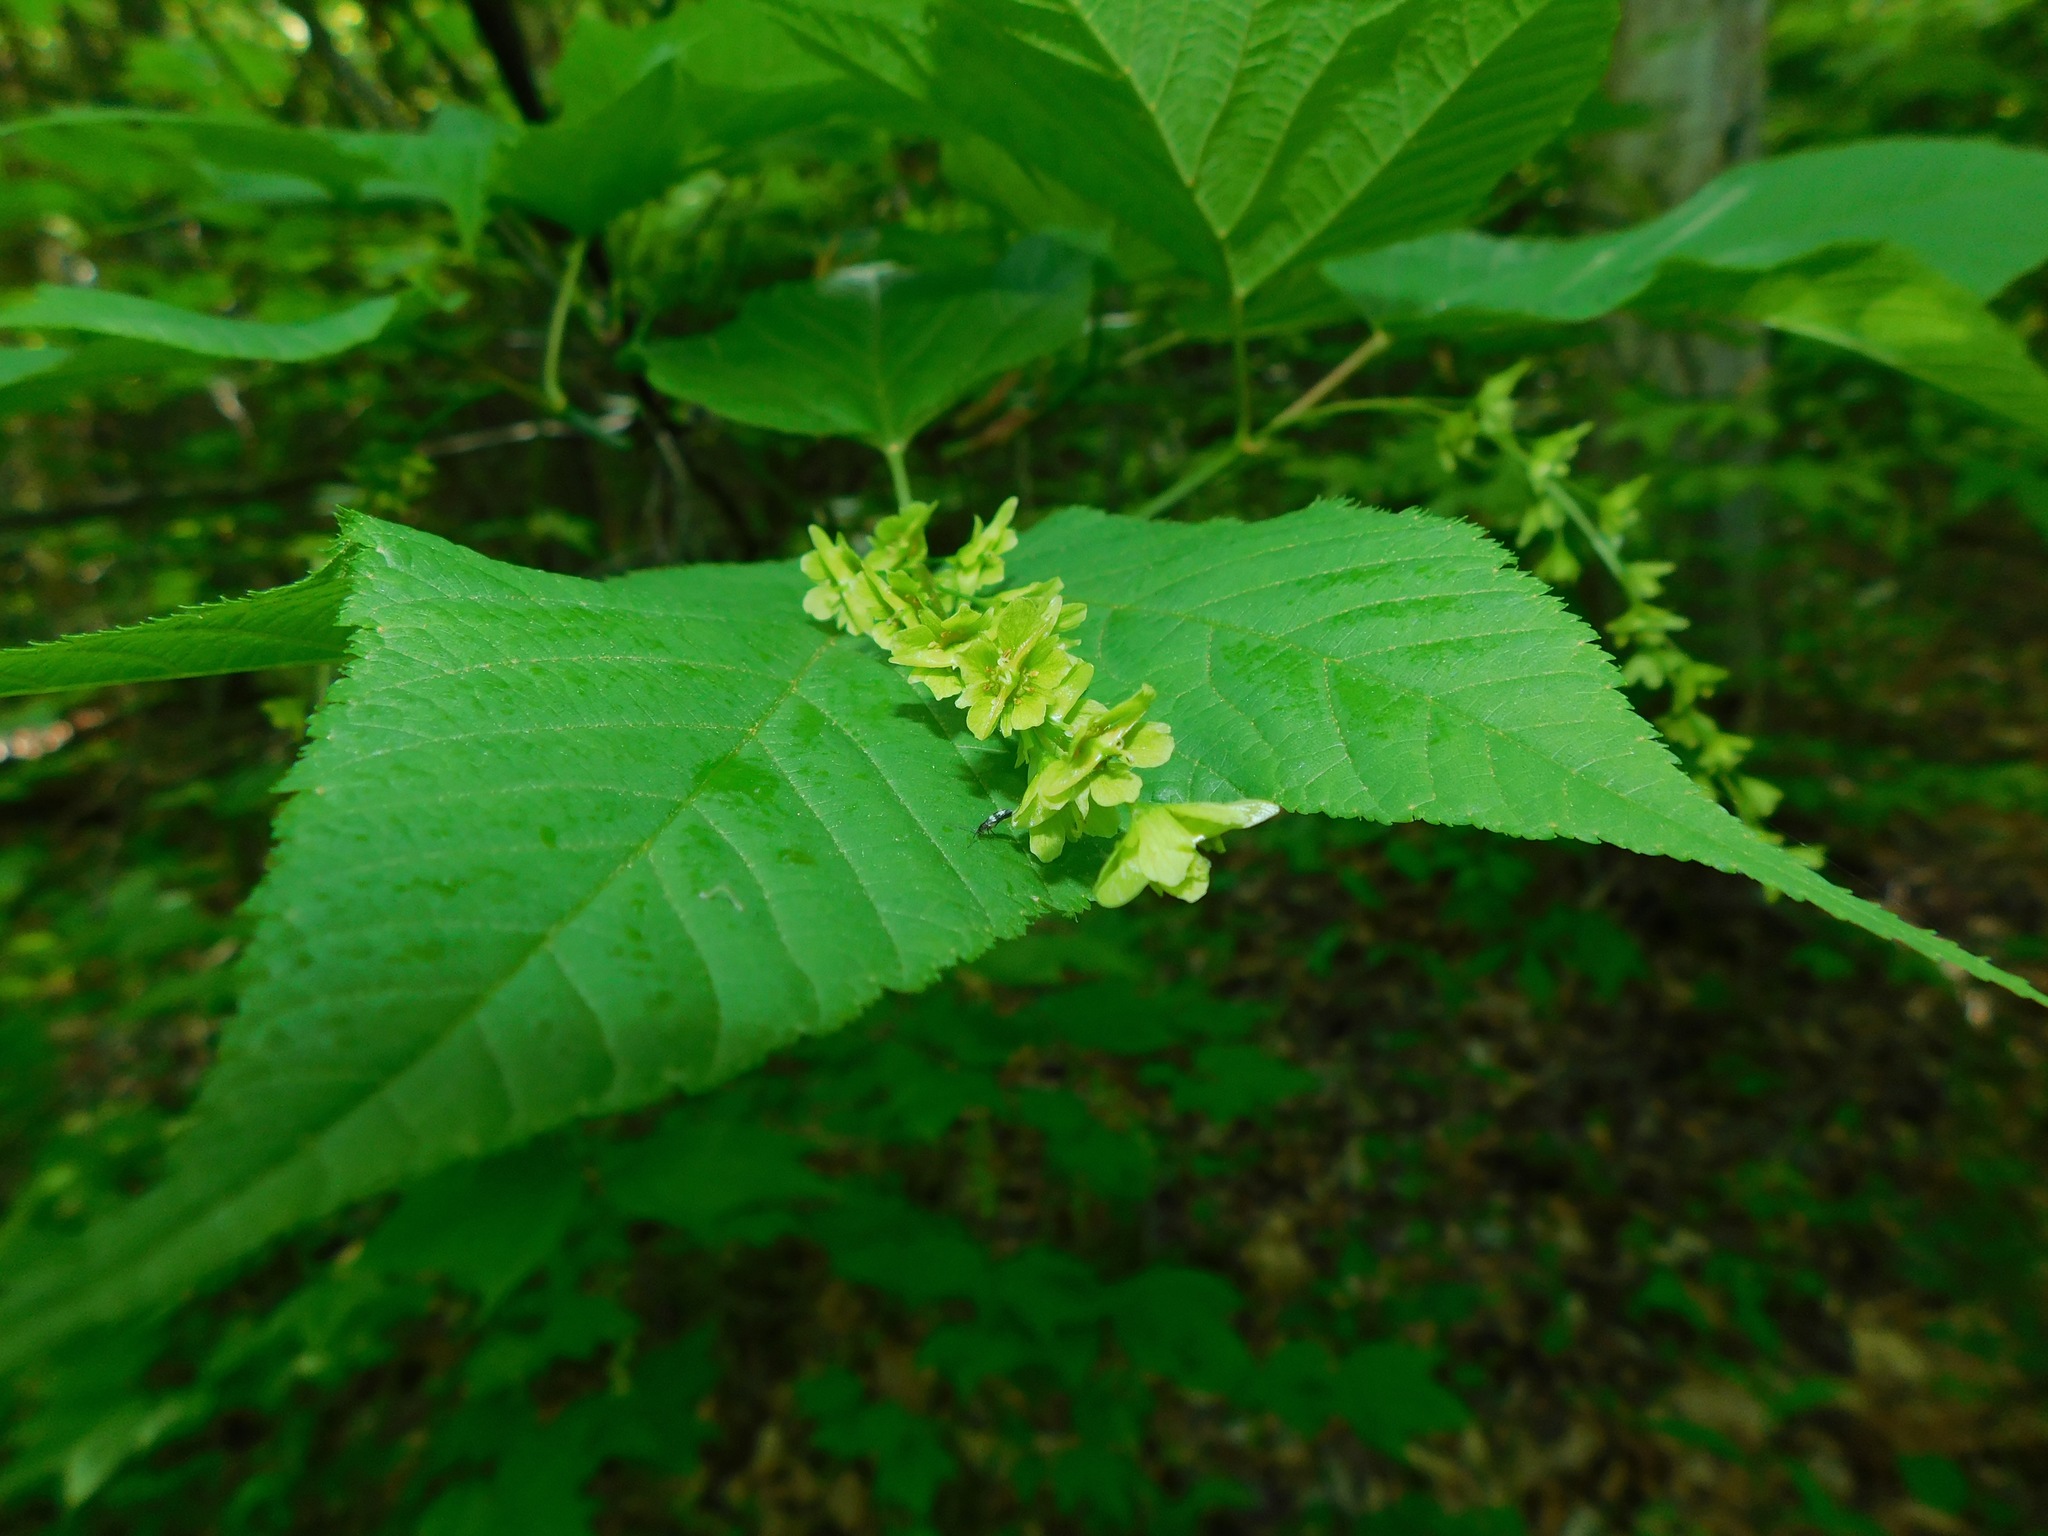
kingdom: Plantae
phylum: Tracheophyta
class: Magnoliopsida
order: Sapindales
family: Sapindaceae
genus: Acer
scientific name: Acer pensylvanicum
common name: Moosewood
